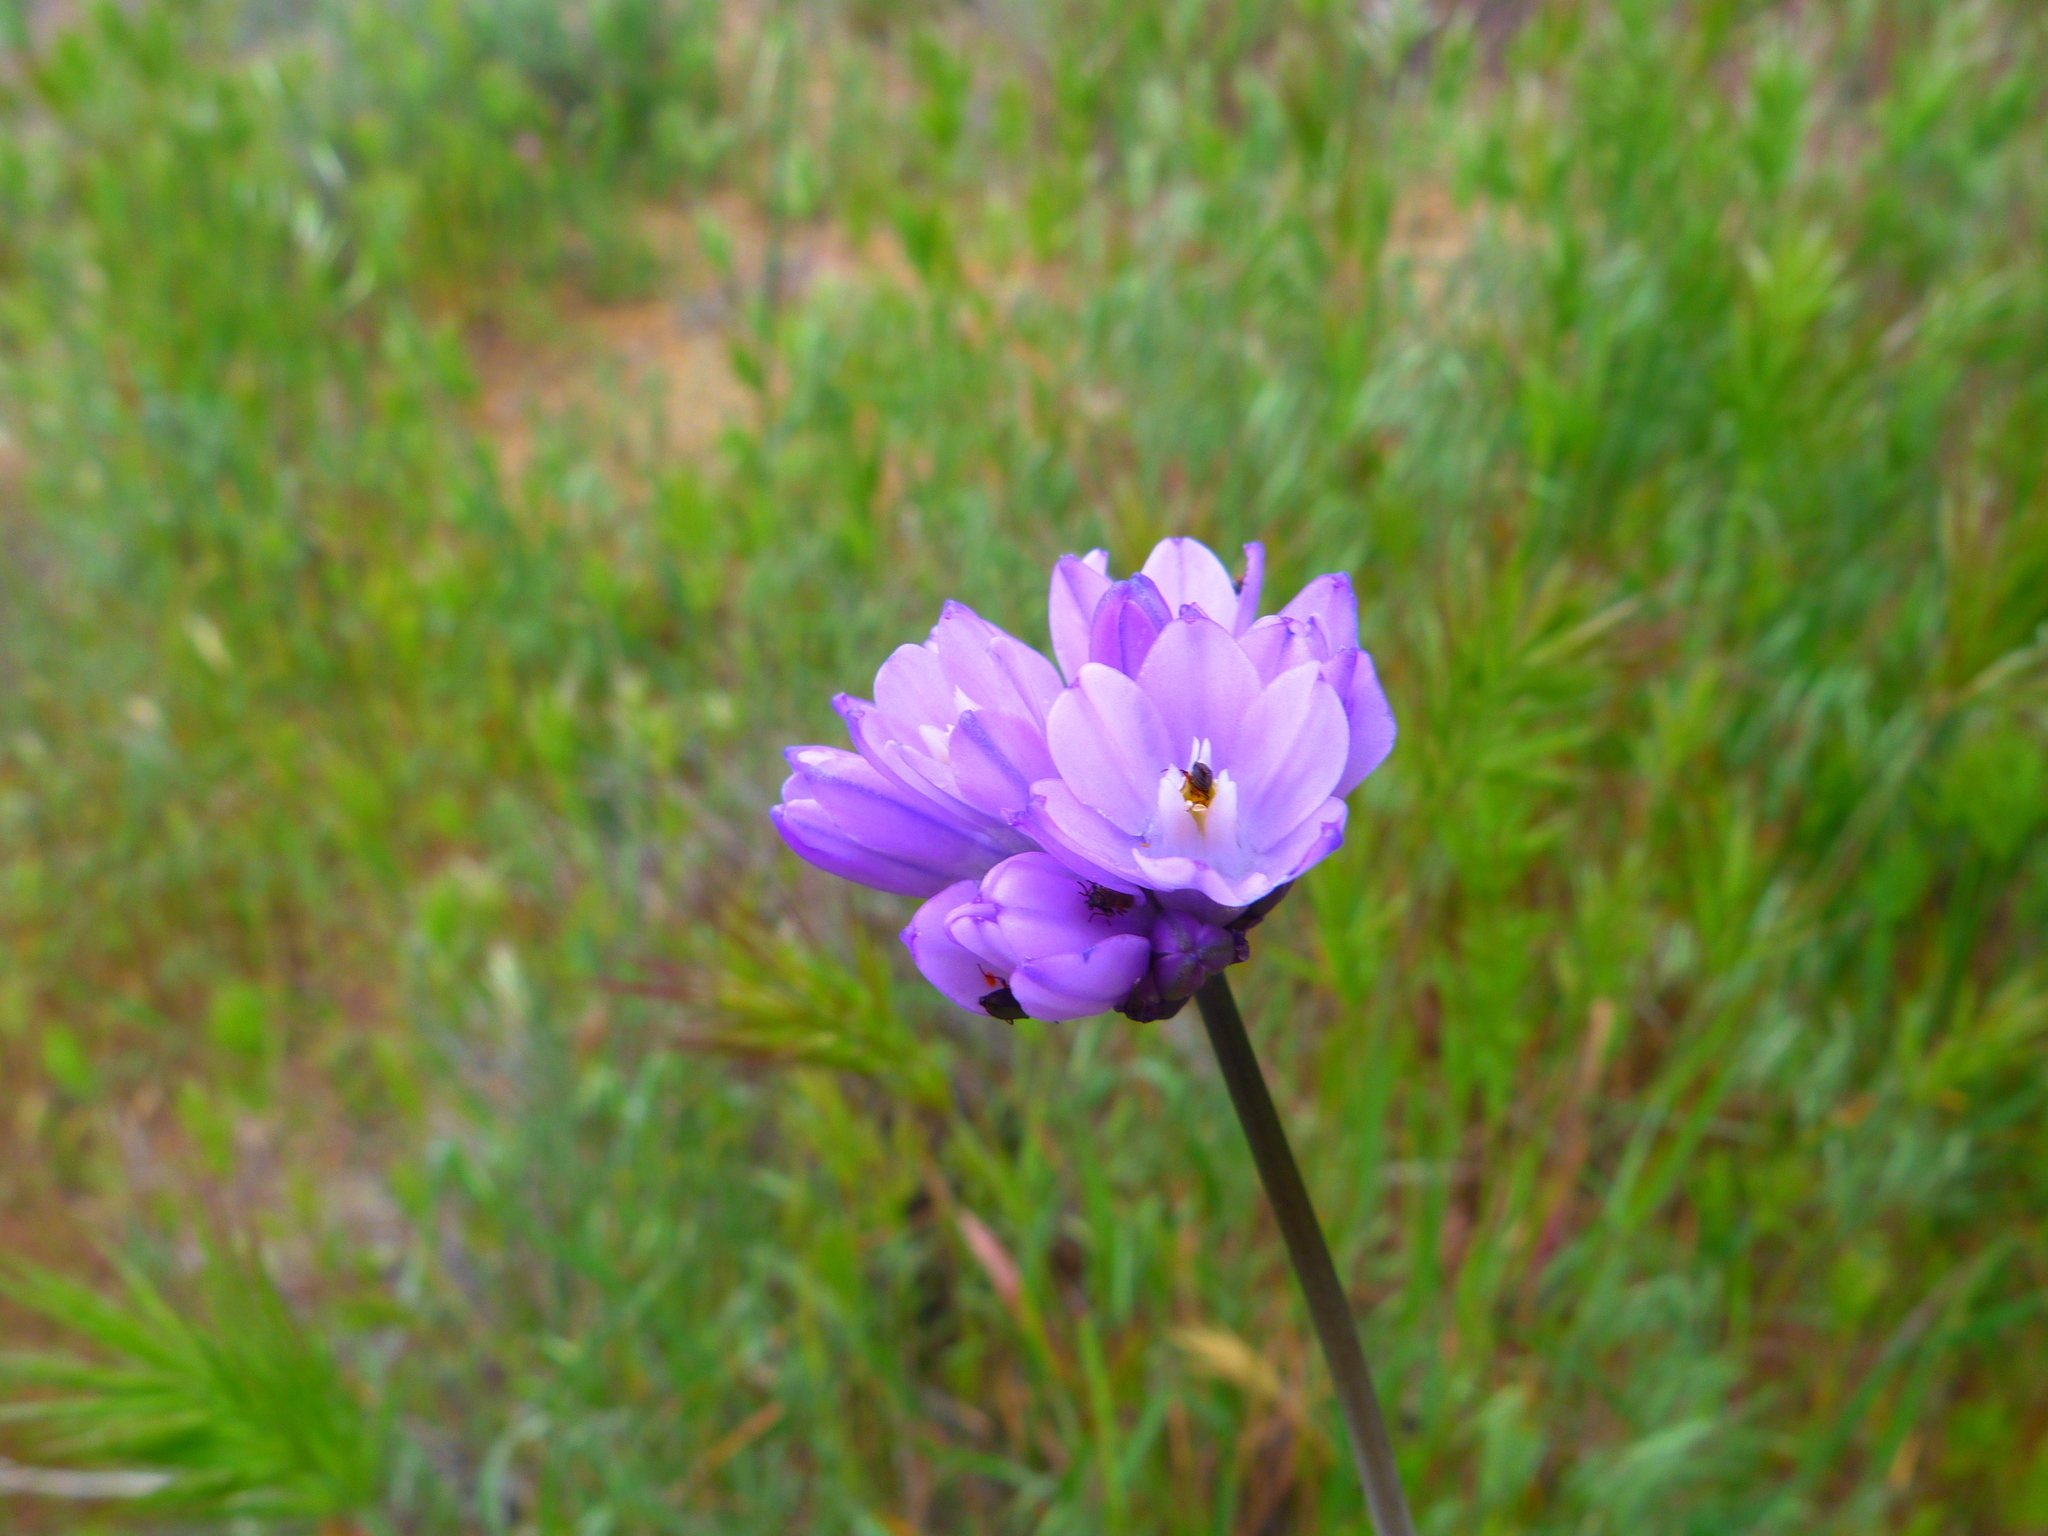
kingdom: Plantae
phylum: Tracheophyta
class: Liliopsida
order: Asparagales
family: Asparagaceae
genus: Dipterostemon
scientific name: Dipterostemon capitatus
